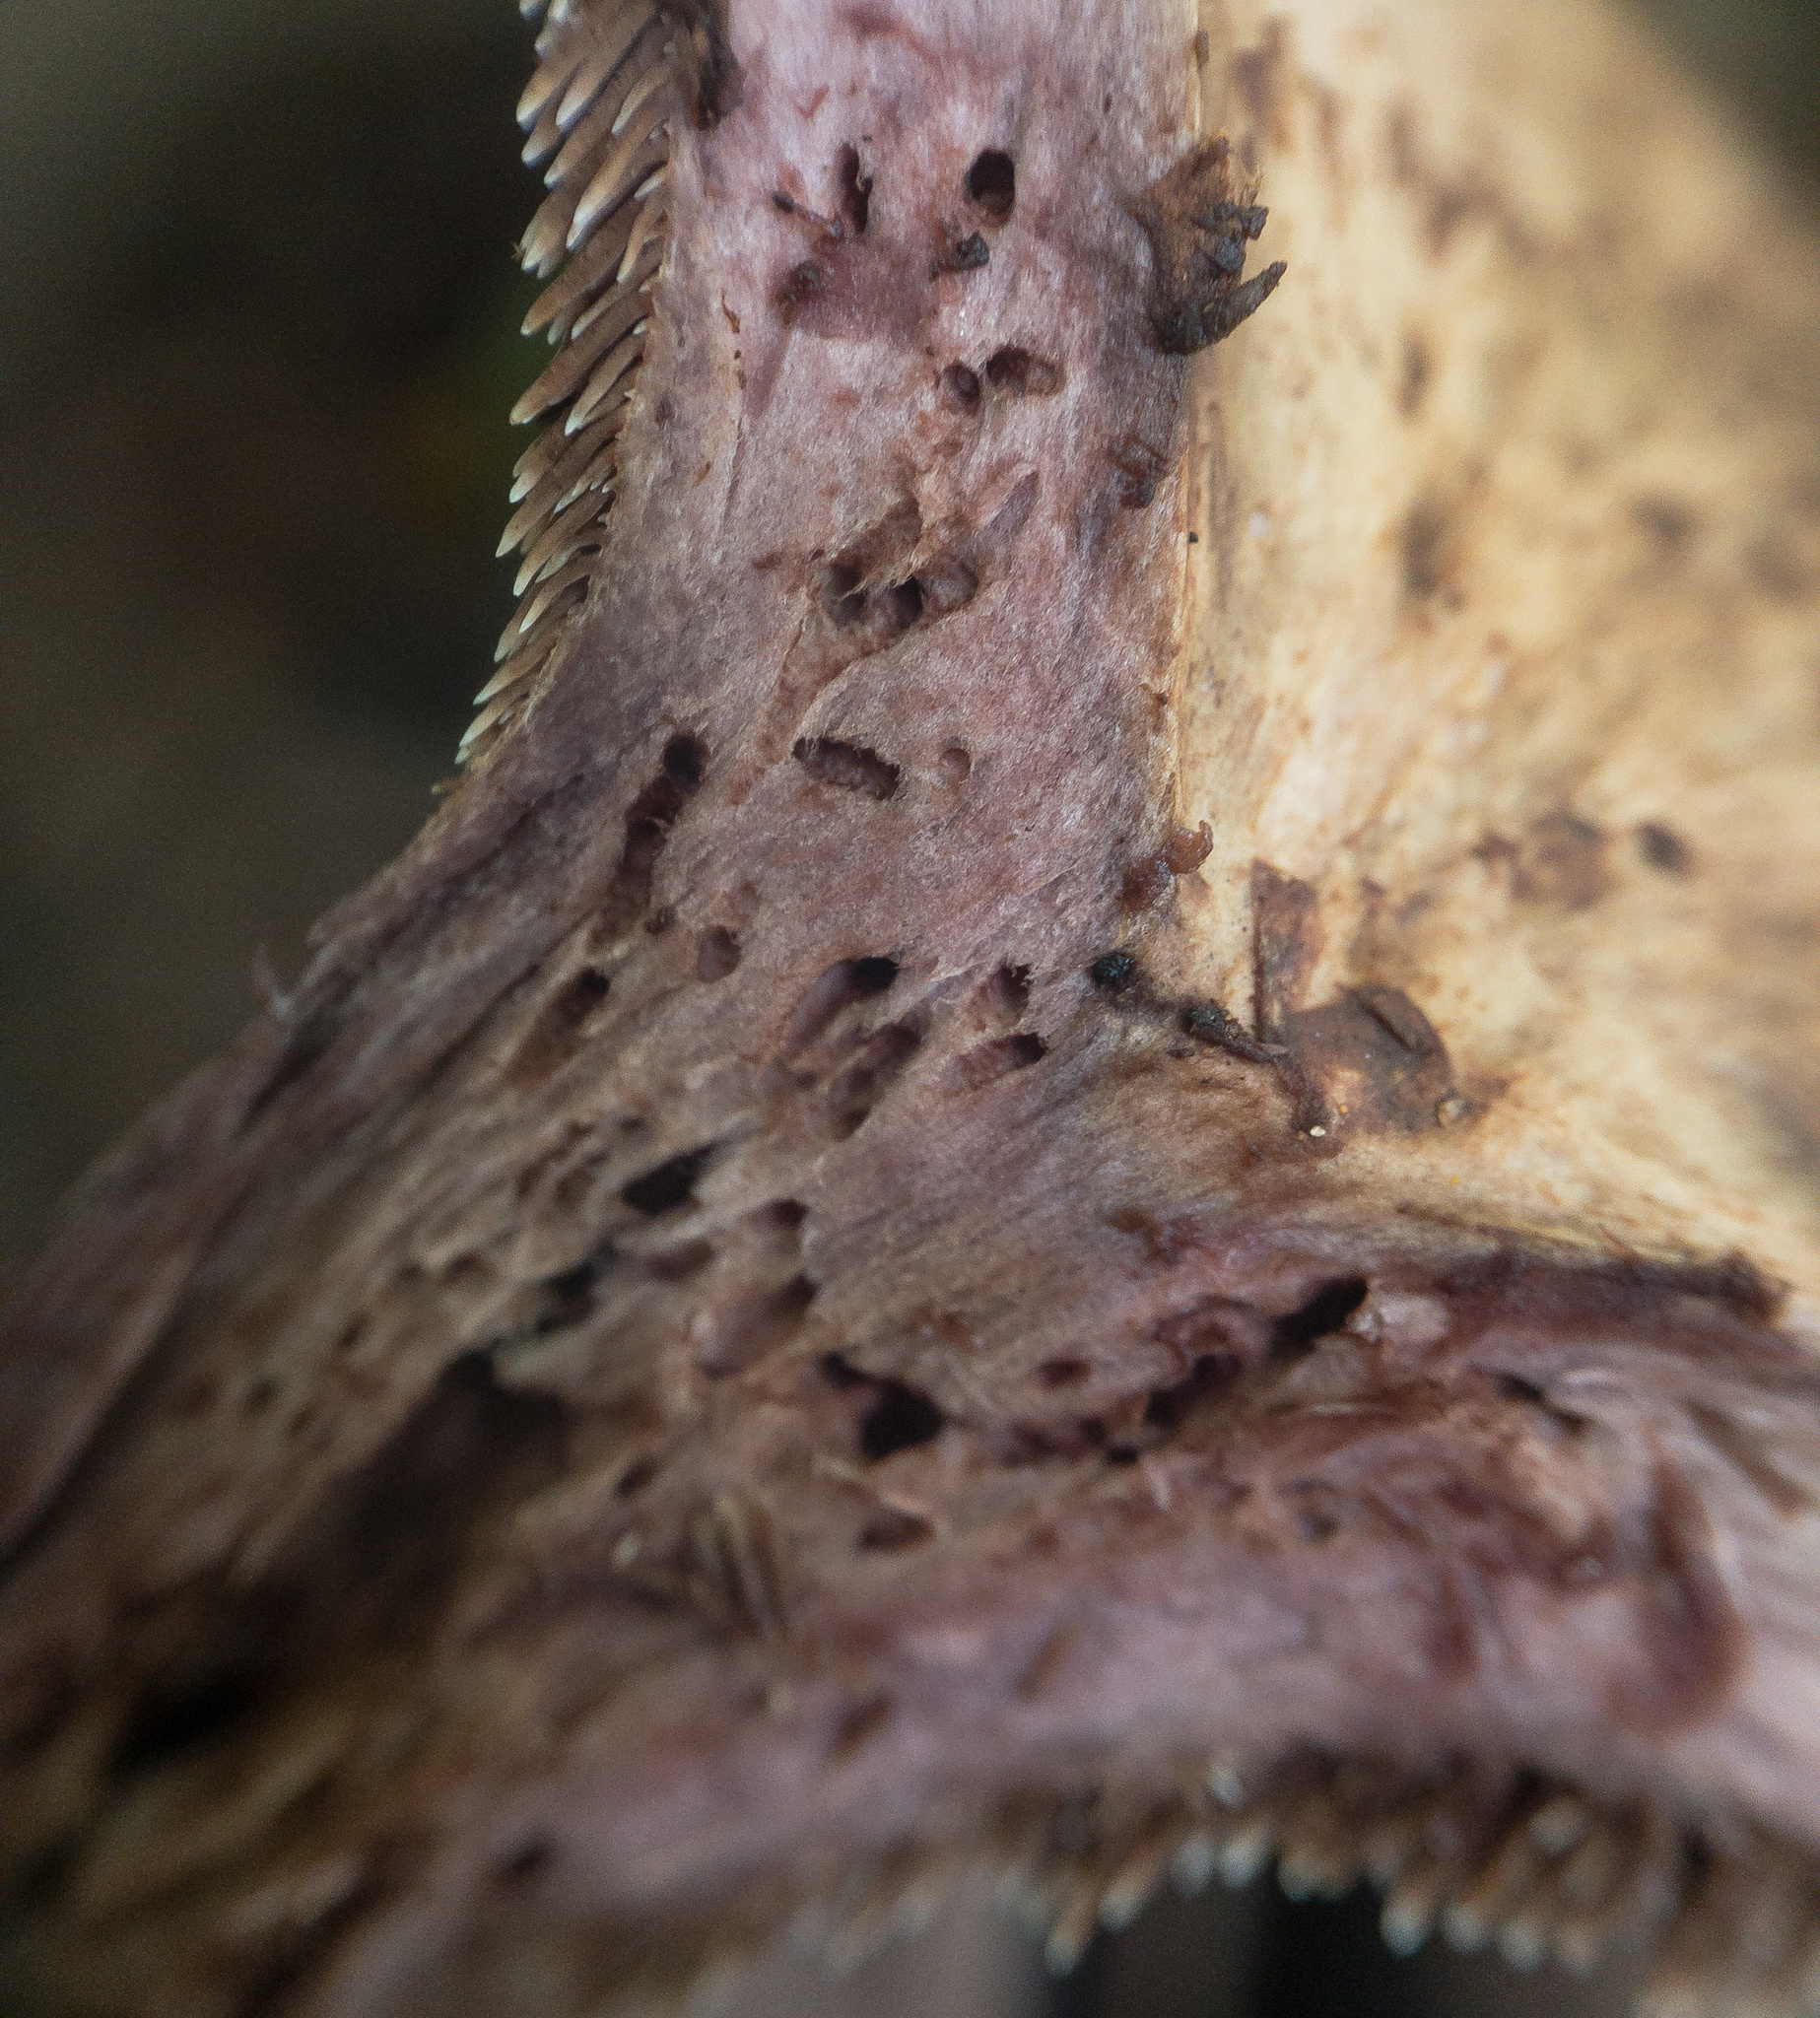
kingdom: Fungi
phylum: Basidiomycota
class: Agaricomycetes
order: Thelephorales
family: Thelephoraceae
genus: Phellodon
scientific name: Phellodon violascens
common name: Spruce tooth
